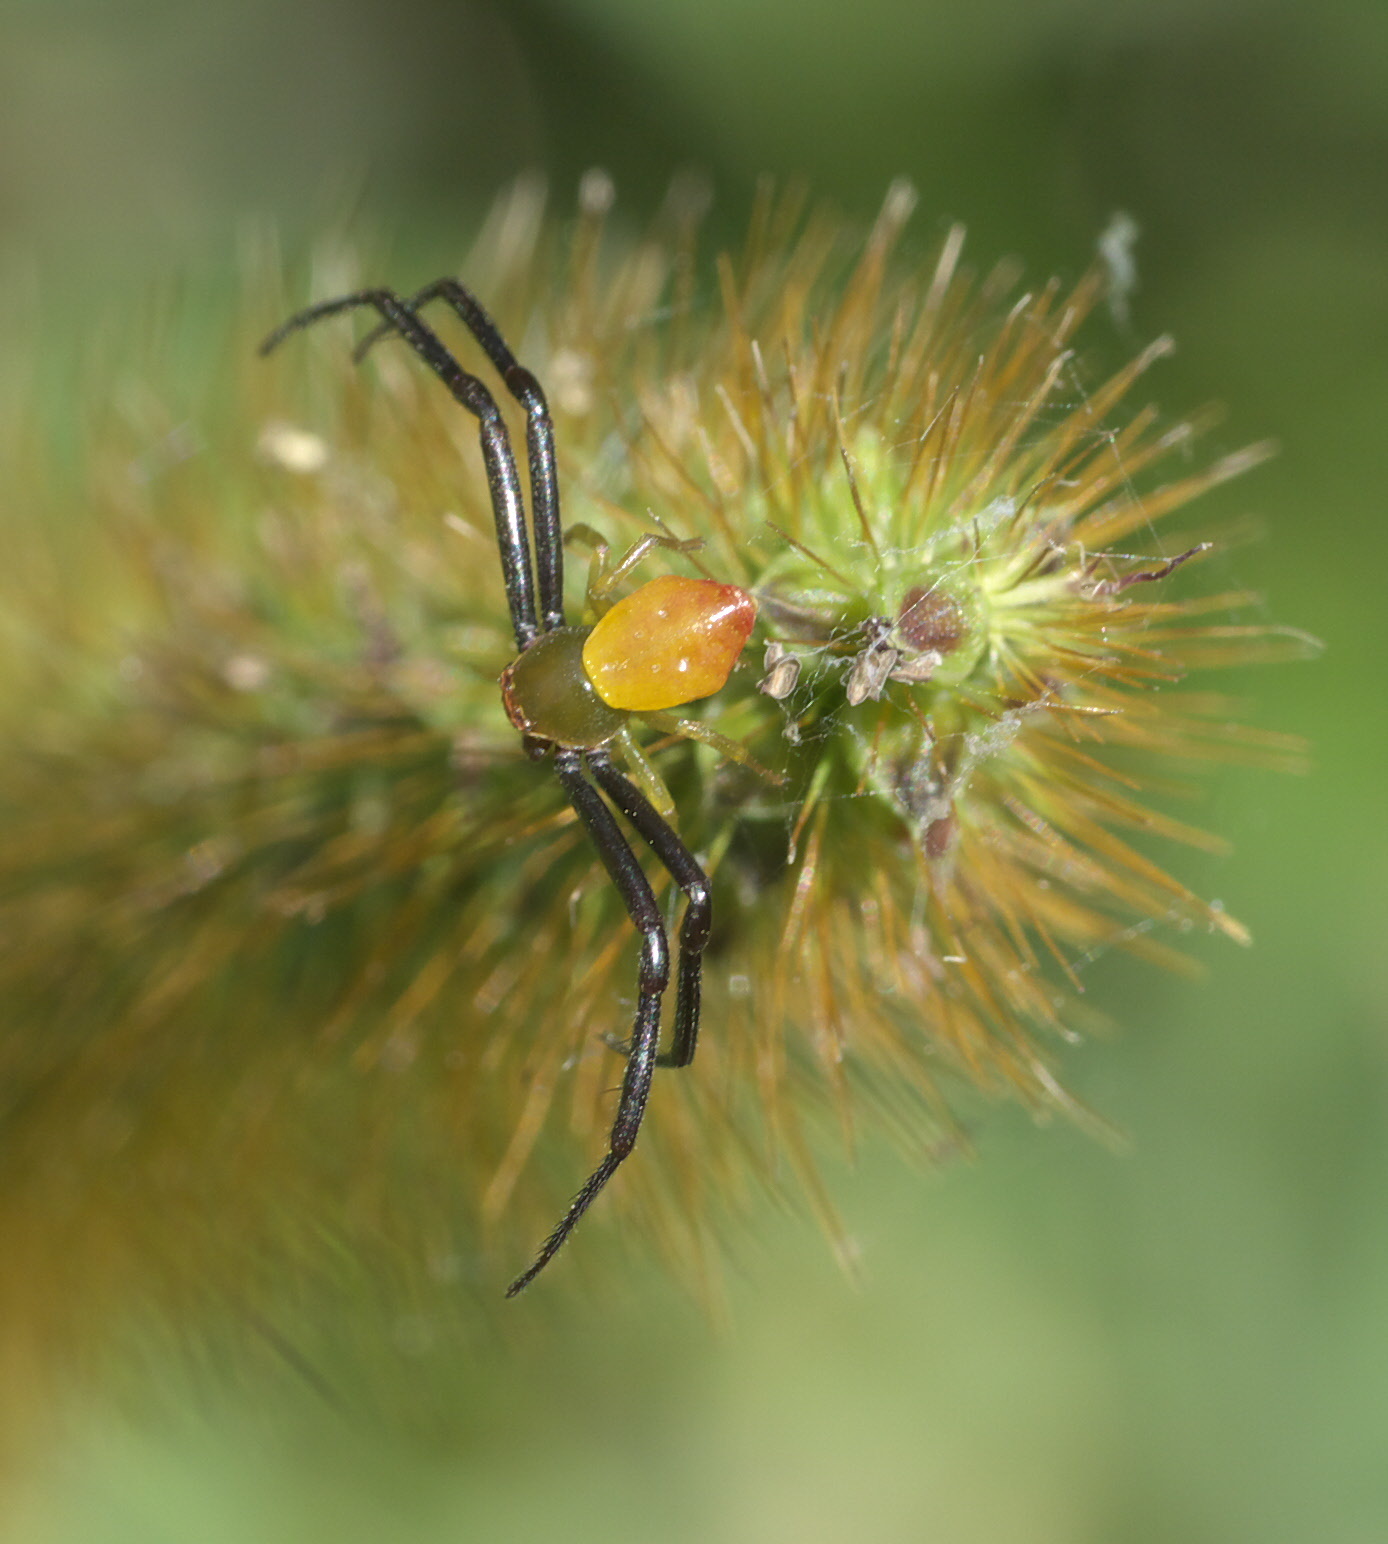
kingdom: Animalia
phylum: Arthropoda
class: Arachnida
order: Araneae
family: Thomisidae
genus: Misumenoides
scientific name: Misumenoides formosipes
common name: White-banded crab spider
